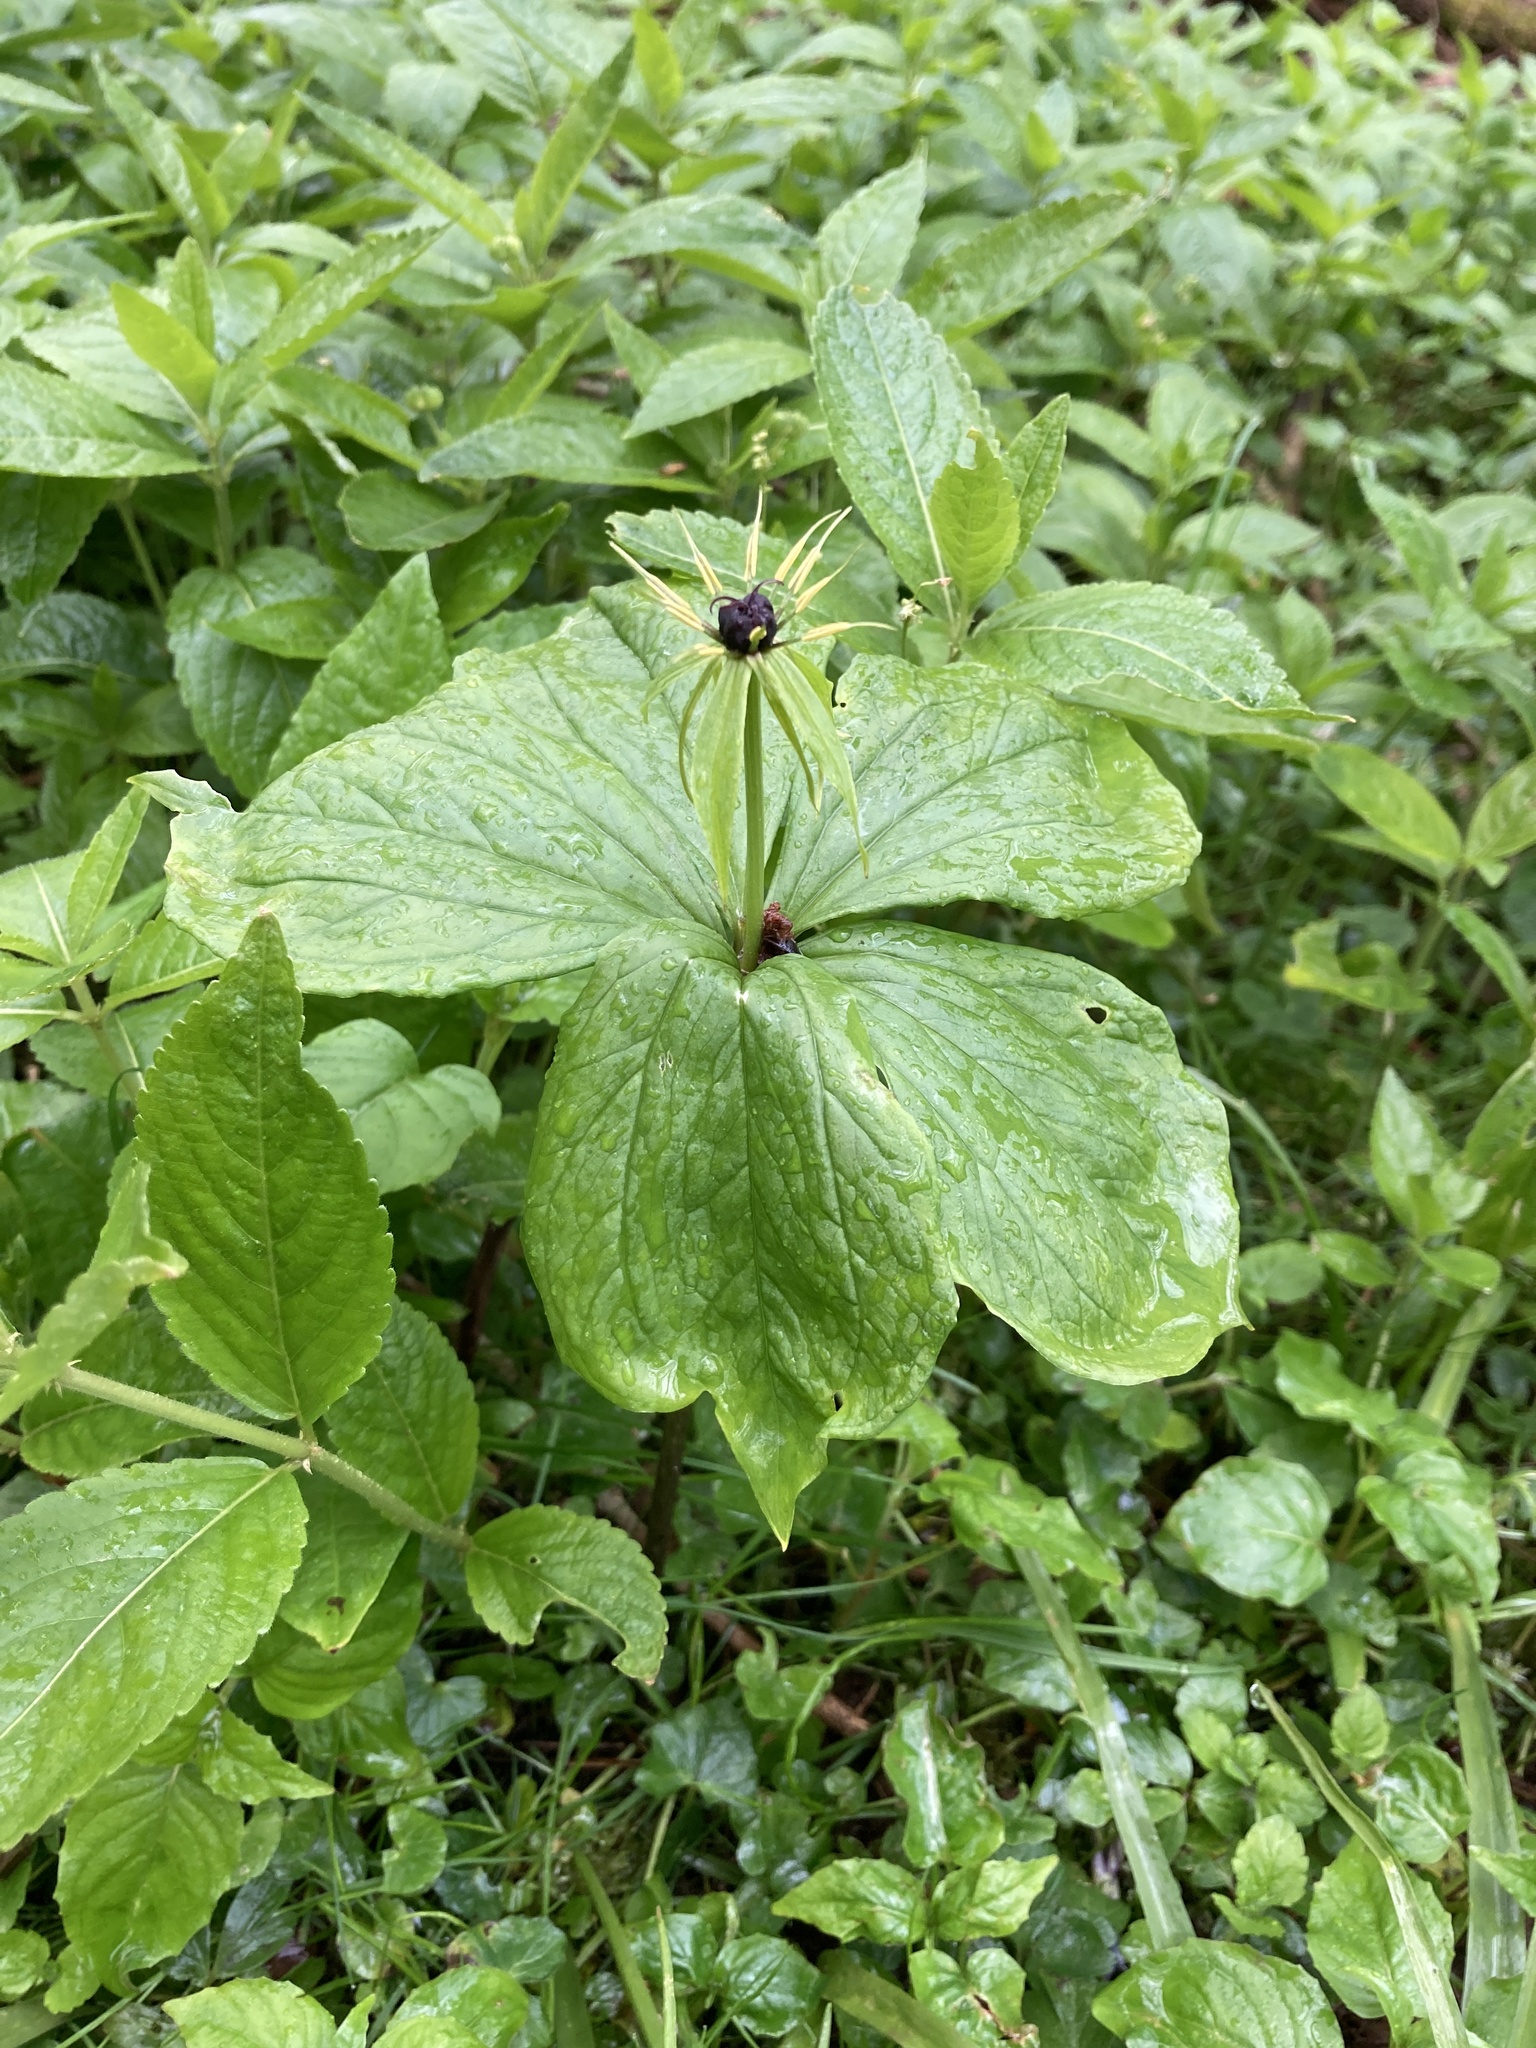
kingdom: Plantae
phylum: Tracheophyta
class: Liliopsida
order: Liliales
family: Melanthiaceae
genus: Paris
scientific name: Paris quadrifolia
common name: Herb-paris
